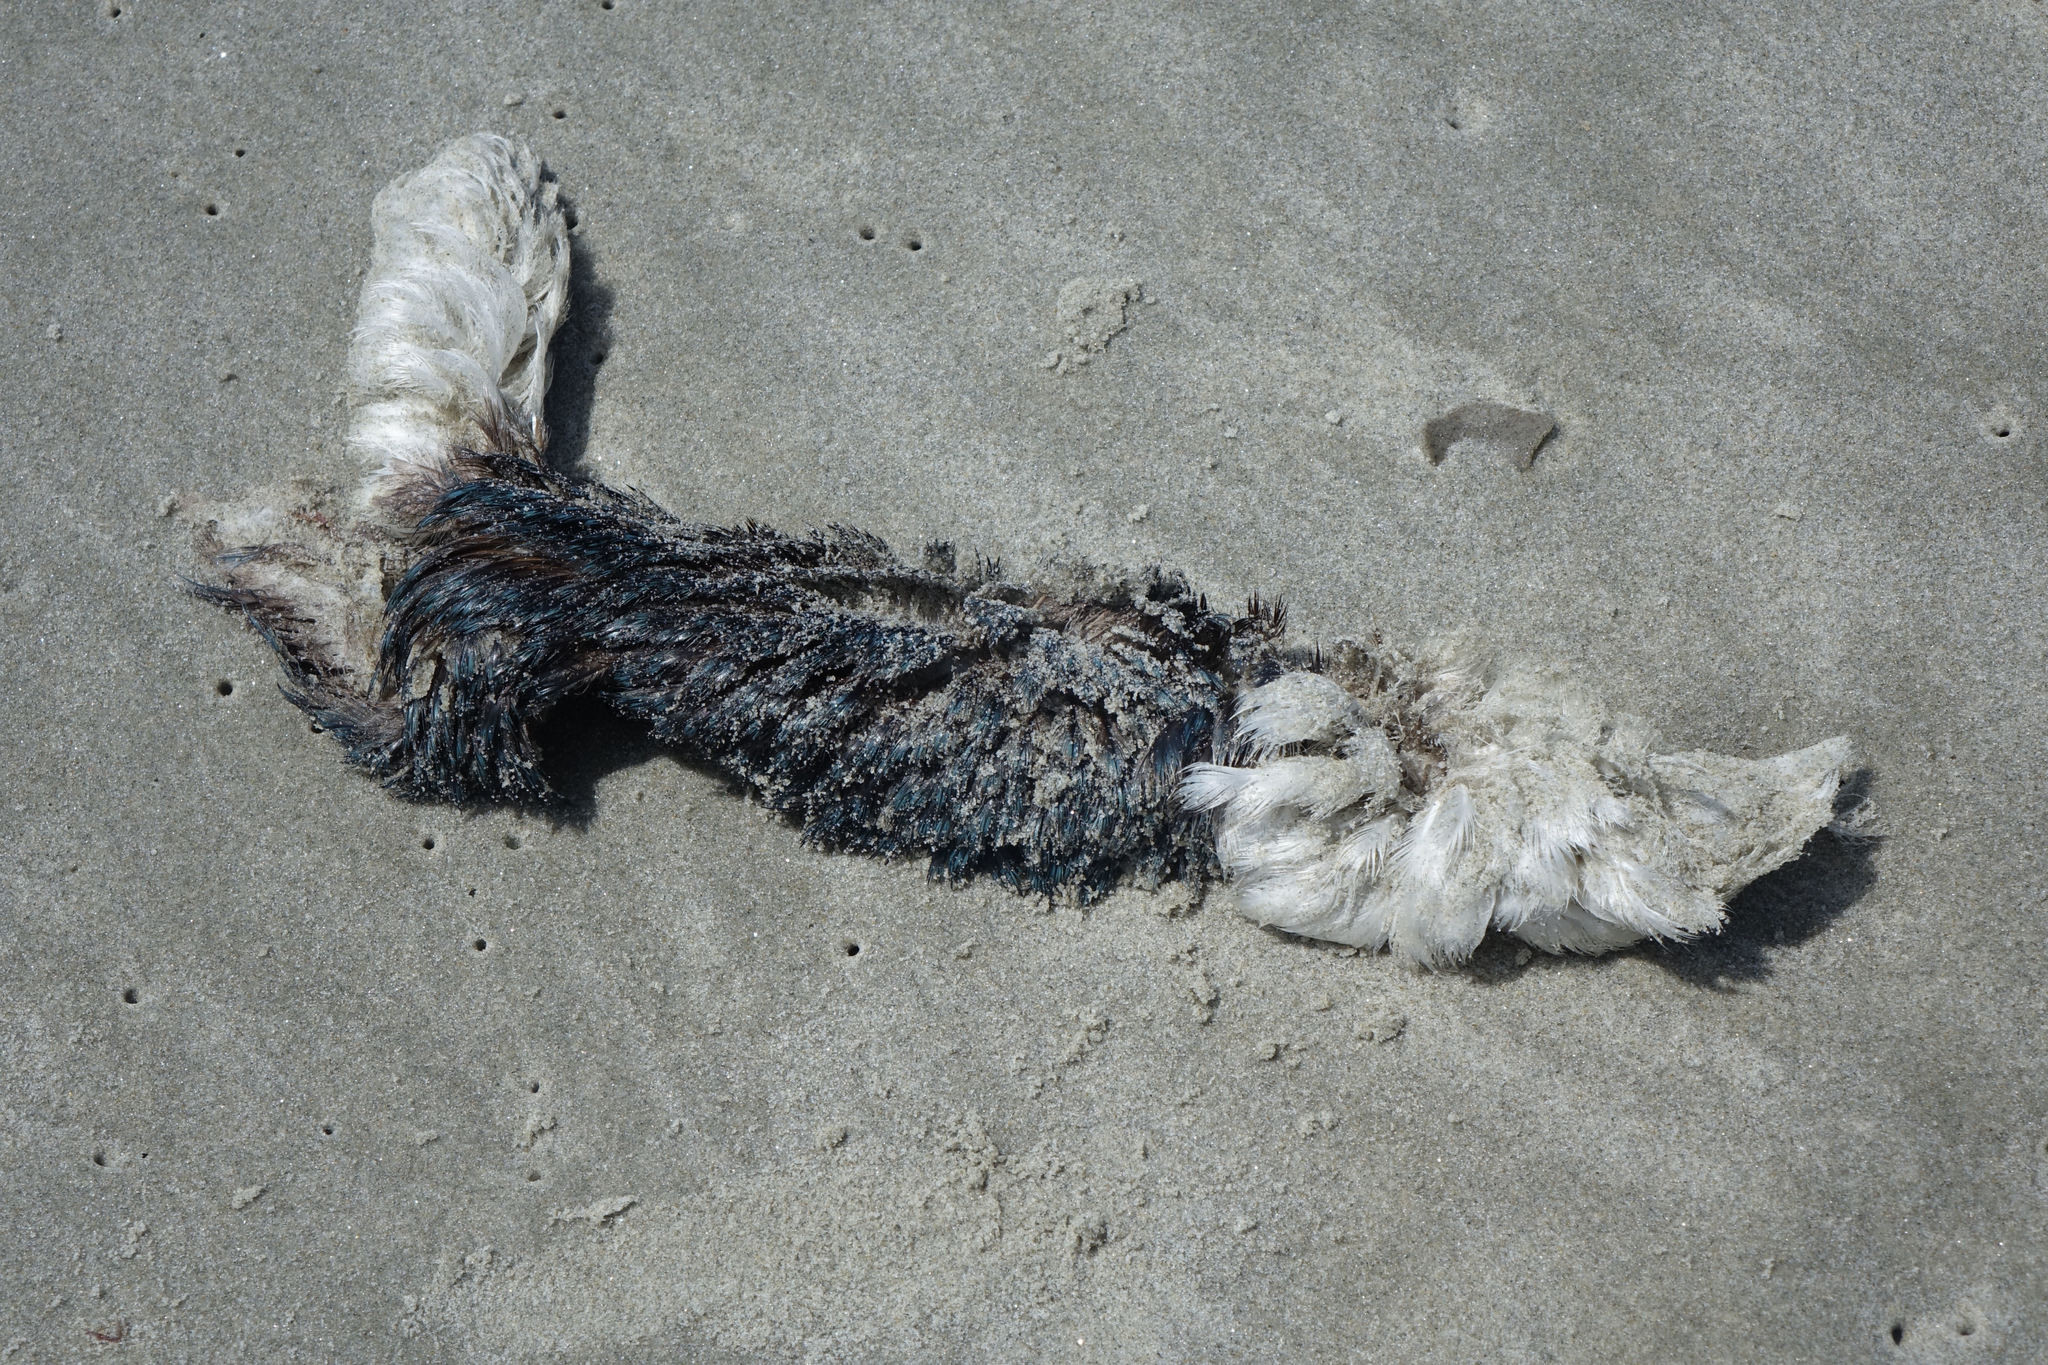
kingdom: Animalia
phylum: Chordata
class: Aves
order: Sphenisciformes
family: Spheniscidae
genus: Eudyptula
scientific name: Eudyptula minor
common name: Little penguin
